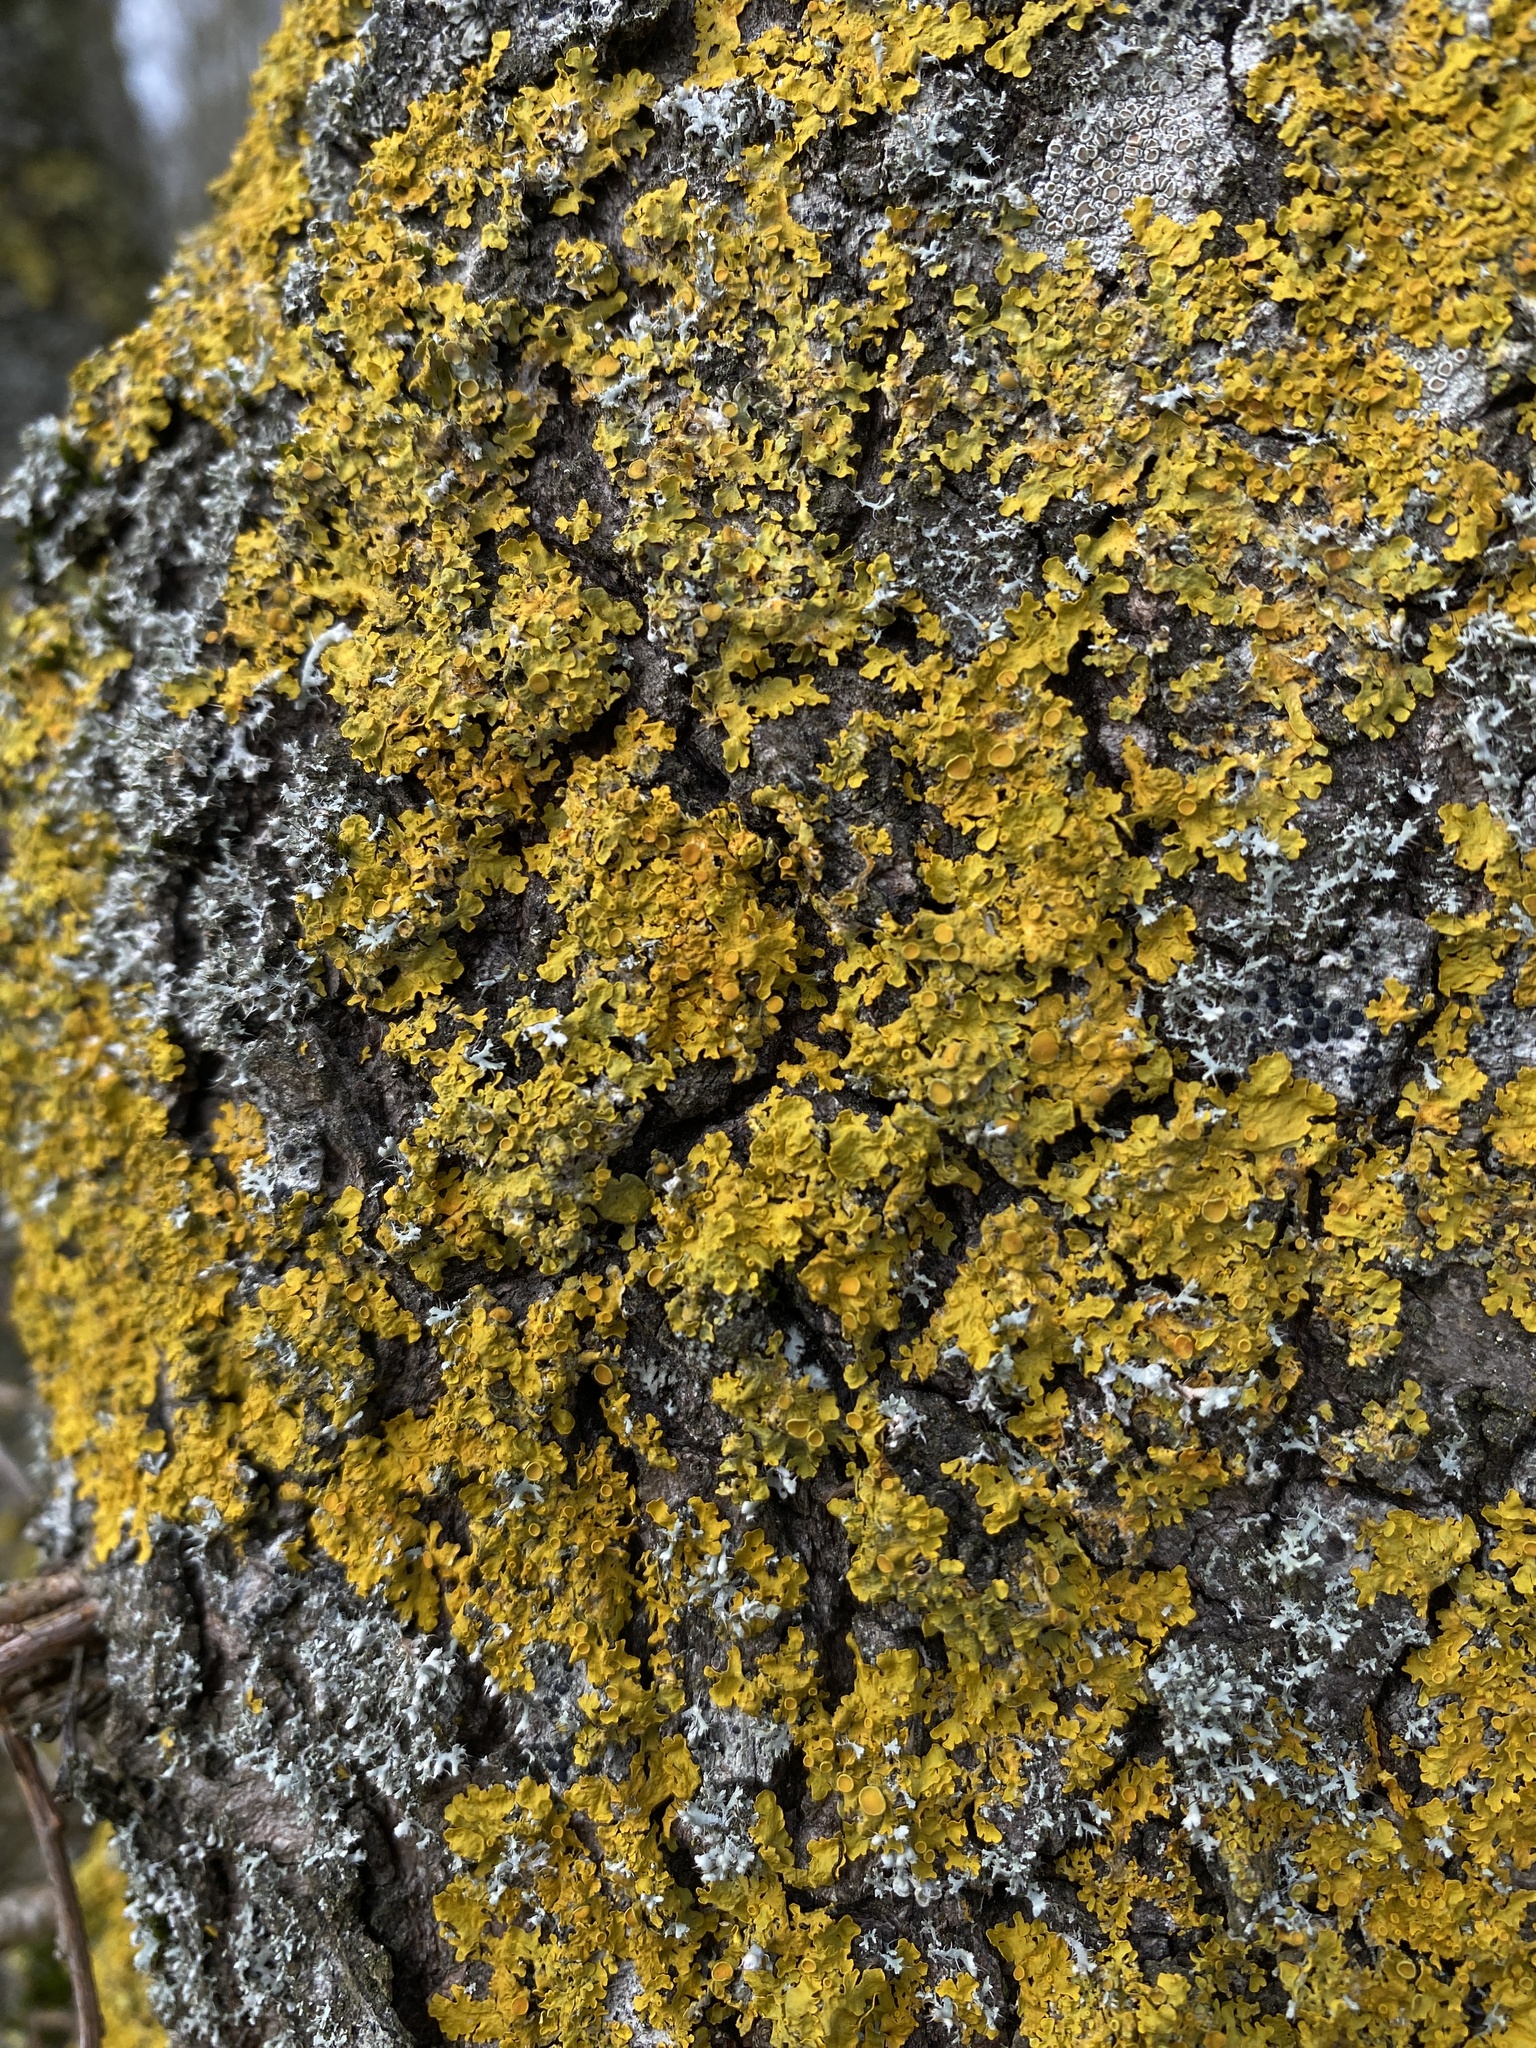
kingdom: Fungi
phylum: Ascomycota
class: Lecanoromycetes
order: Teloschistales
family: Teloschistaceae
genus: Xanthoria
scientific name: Xanthoria parietina
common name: Common orange lichen
